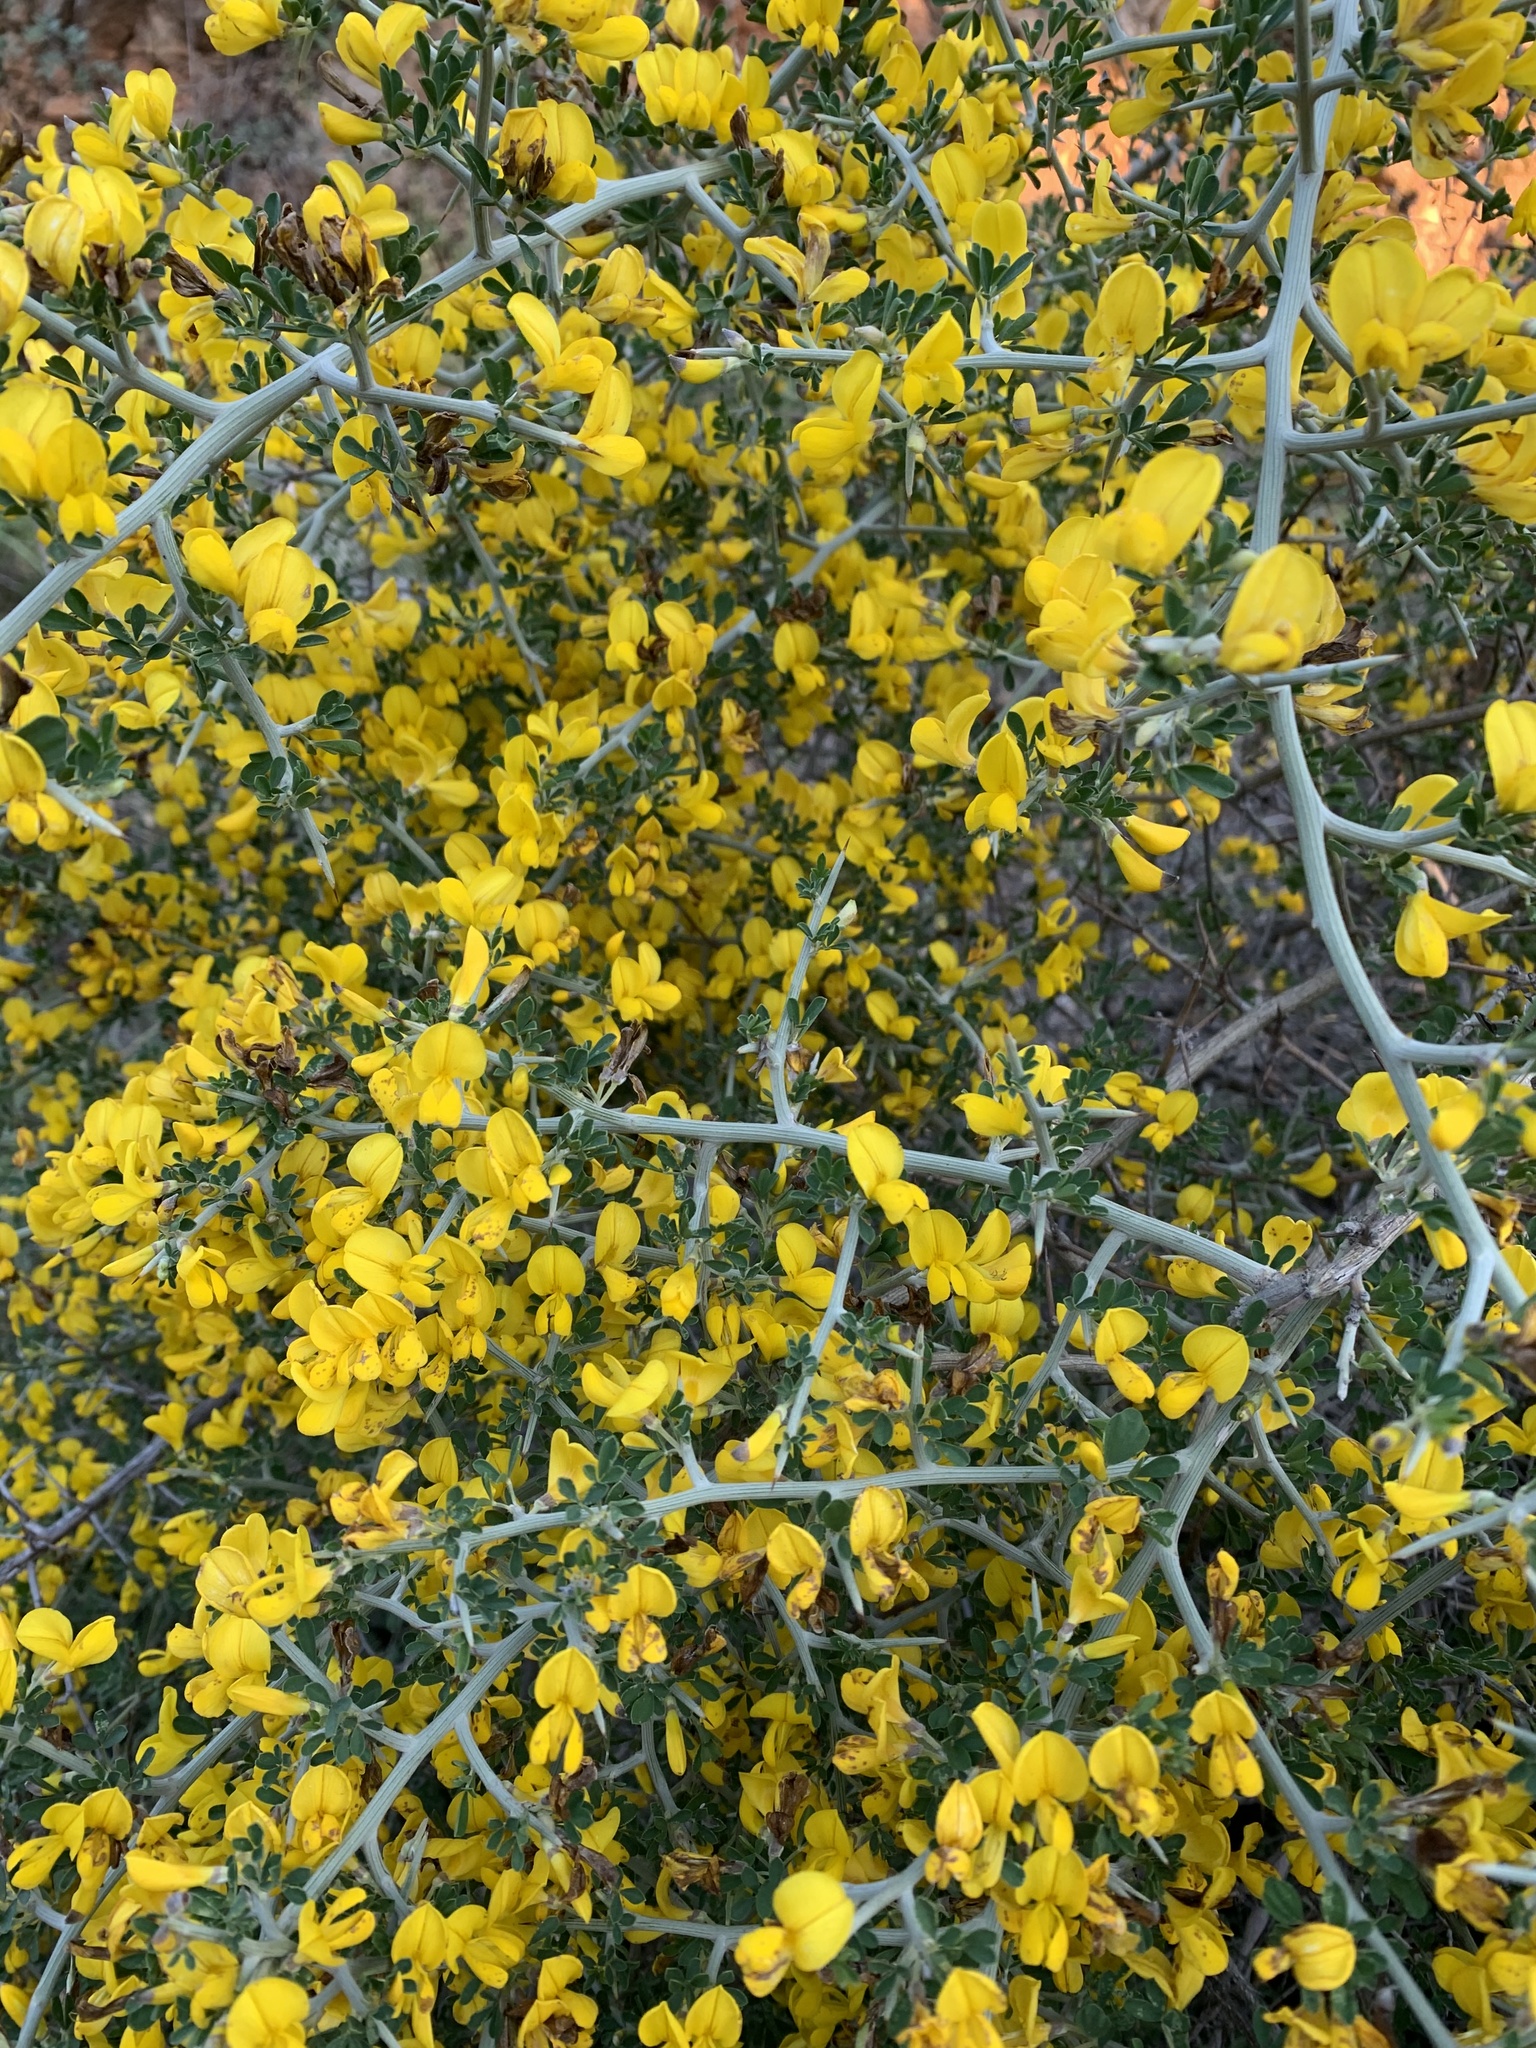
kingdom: Plantae
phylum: Tracheophyta
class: Magnoliopsida
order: Fabales
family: Fabaceae
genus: Calicotome
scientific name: Calicotome villosa
